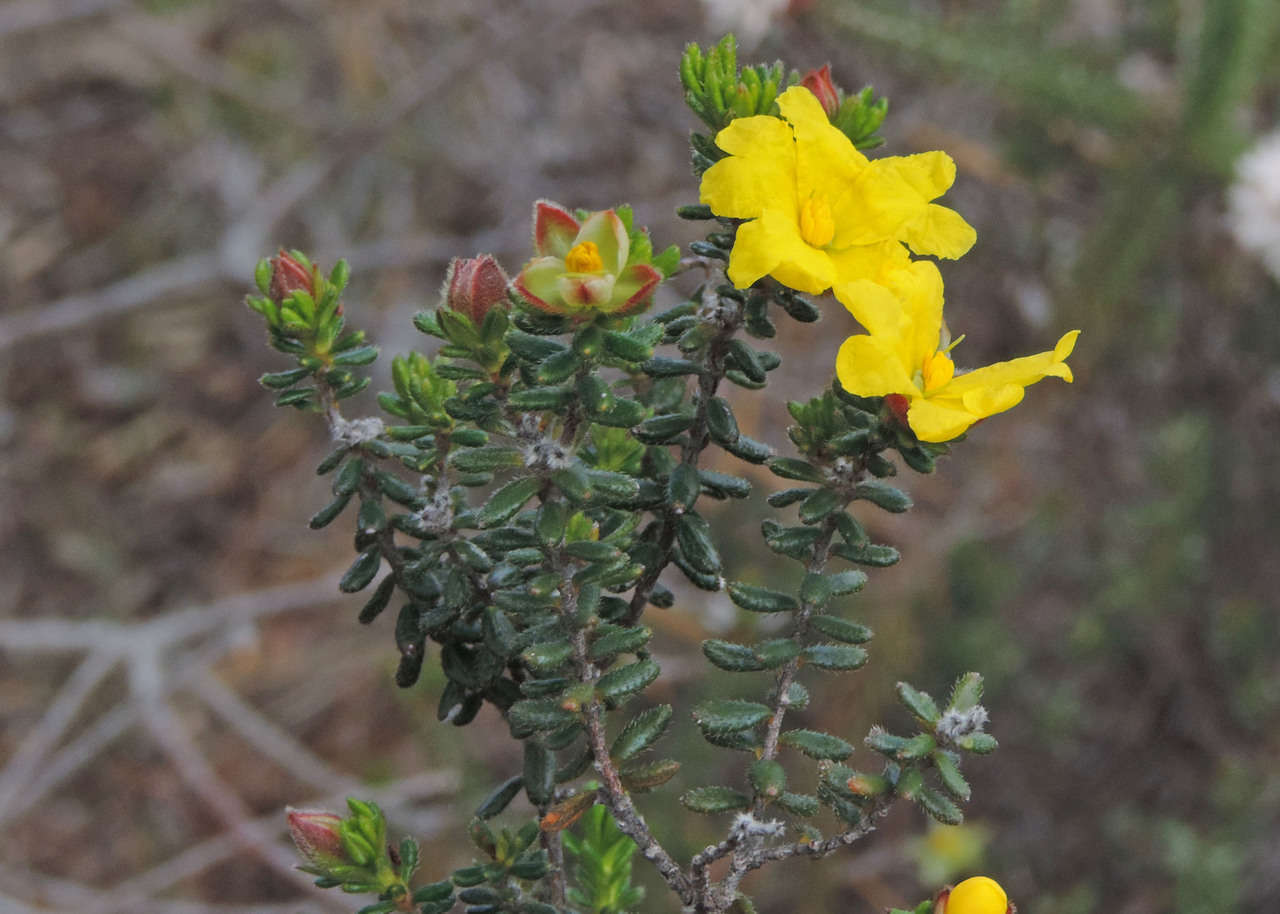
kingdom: Plantae
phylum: Tracheophyta
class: Magnoliopsida
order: Dilleniales
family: Dilleniaceae
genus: Hibbertia
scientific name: Hibbertia sericea
